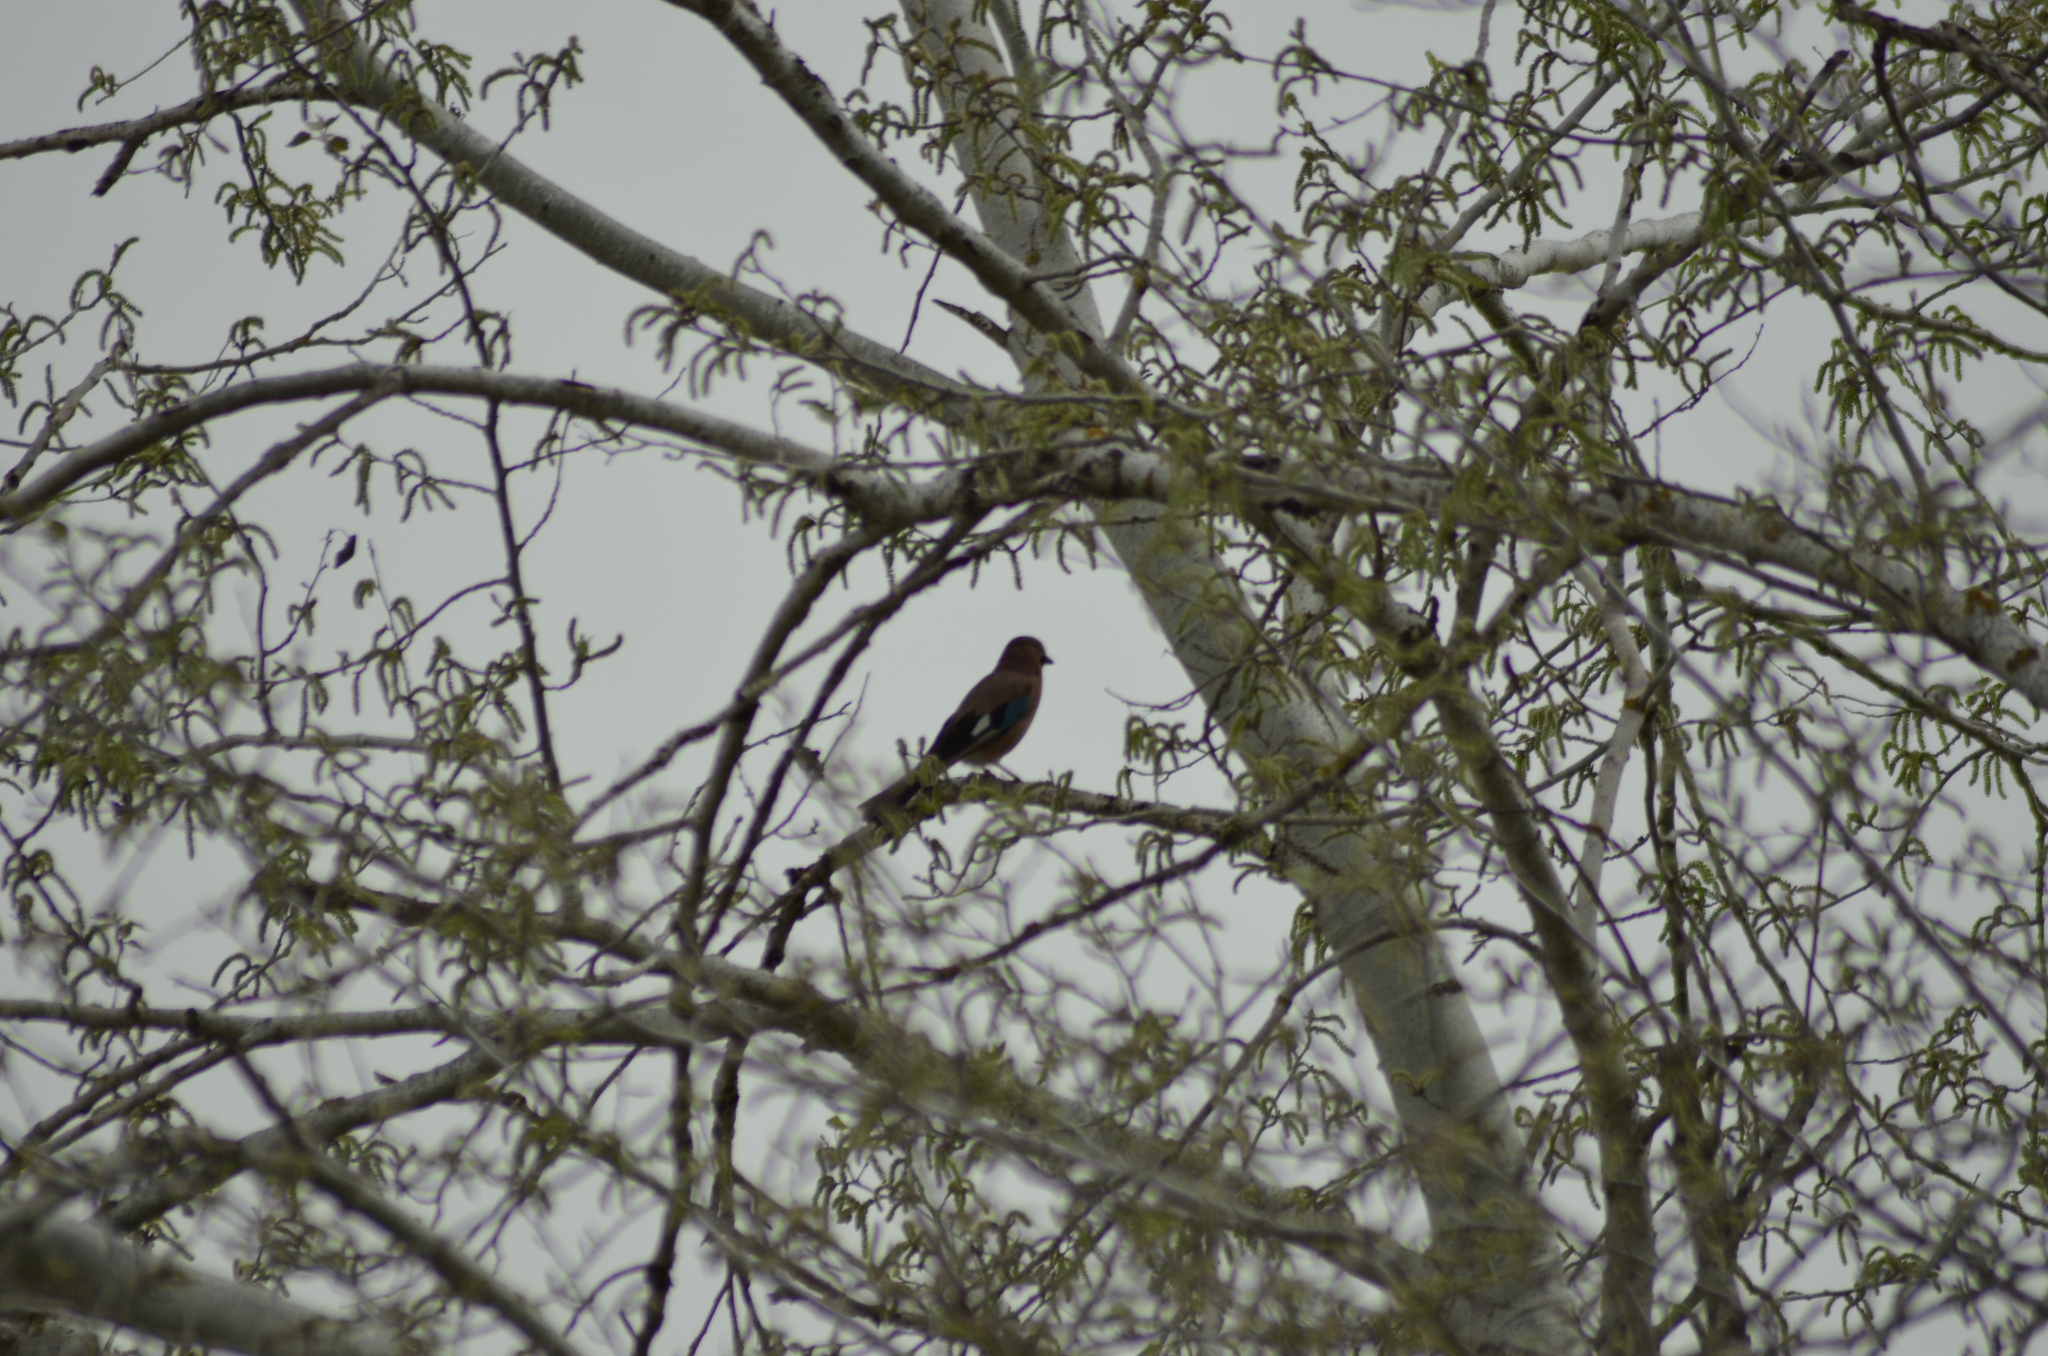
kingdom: Animalia
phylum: Chordata
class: Aves
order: Passeriformes
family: Corvidae
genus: Garrulus
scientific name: Garrulus glandarius
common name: Eurasian jay
